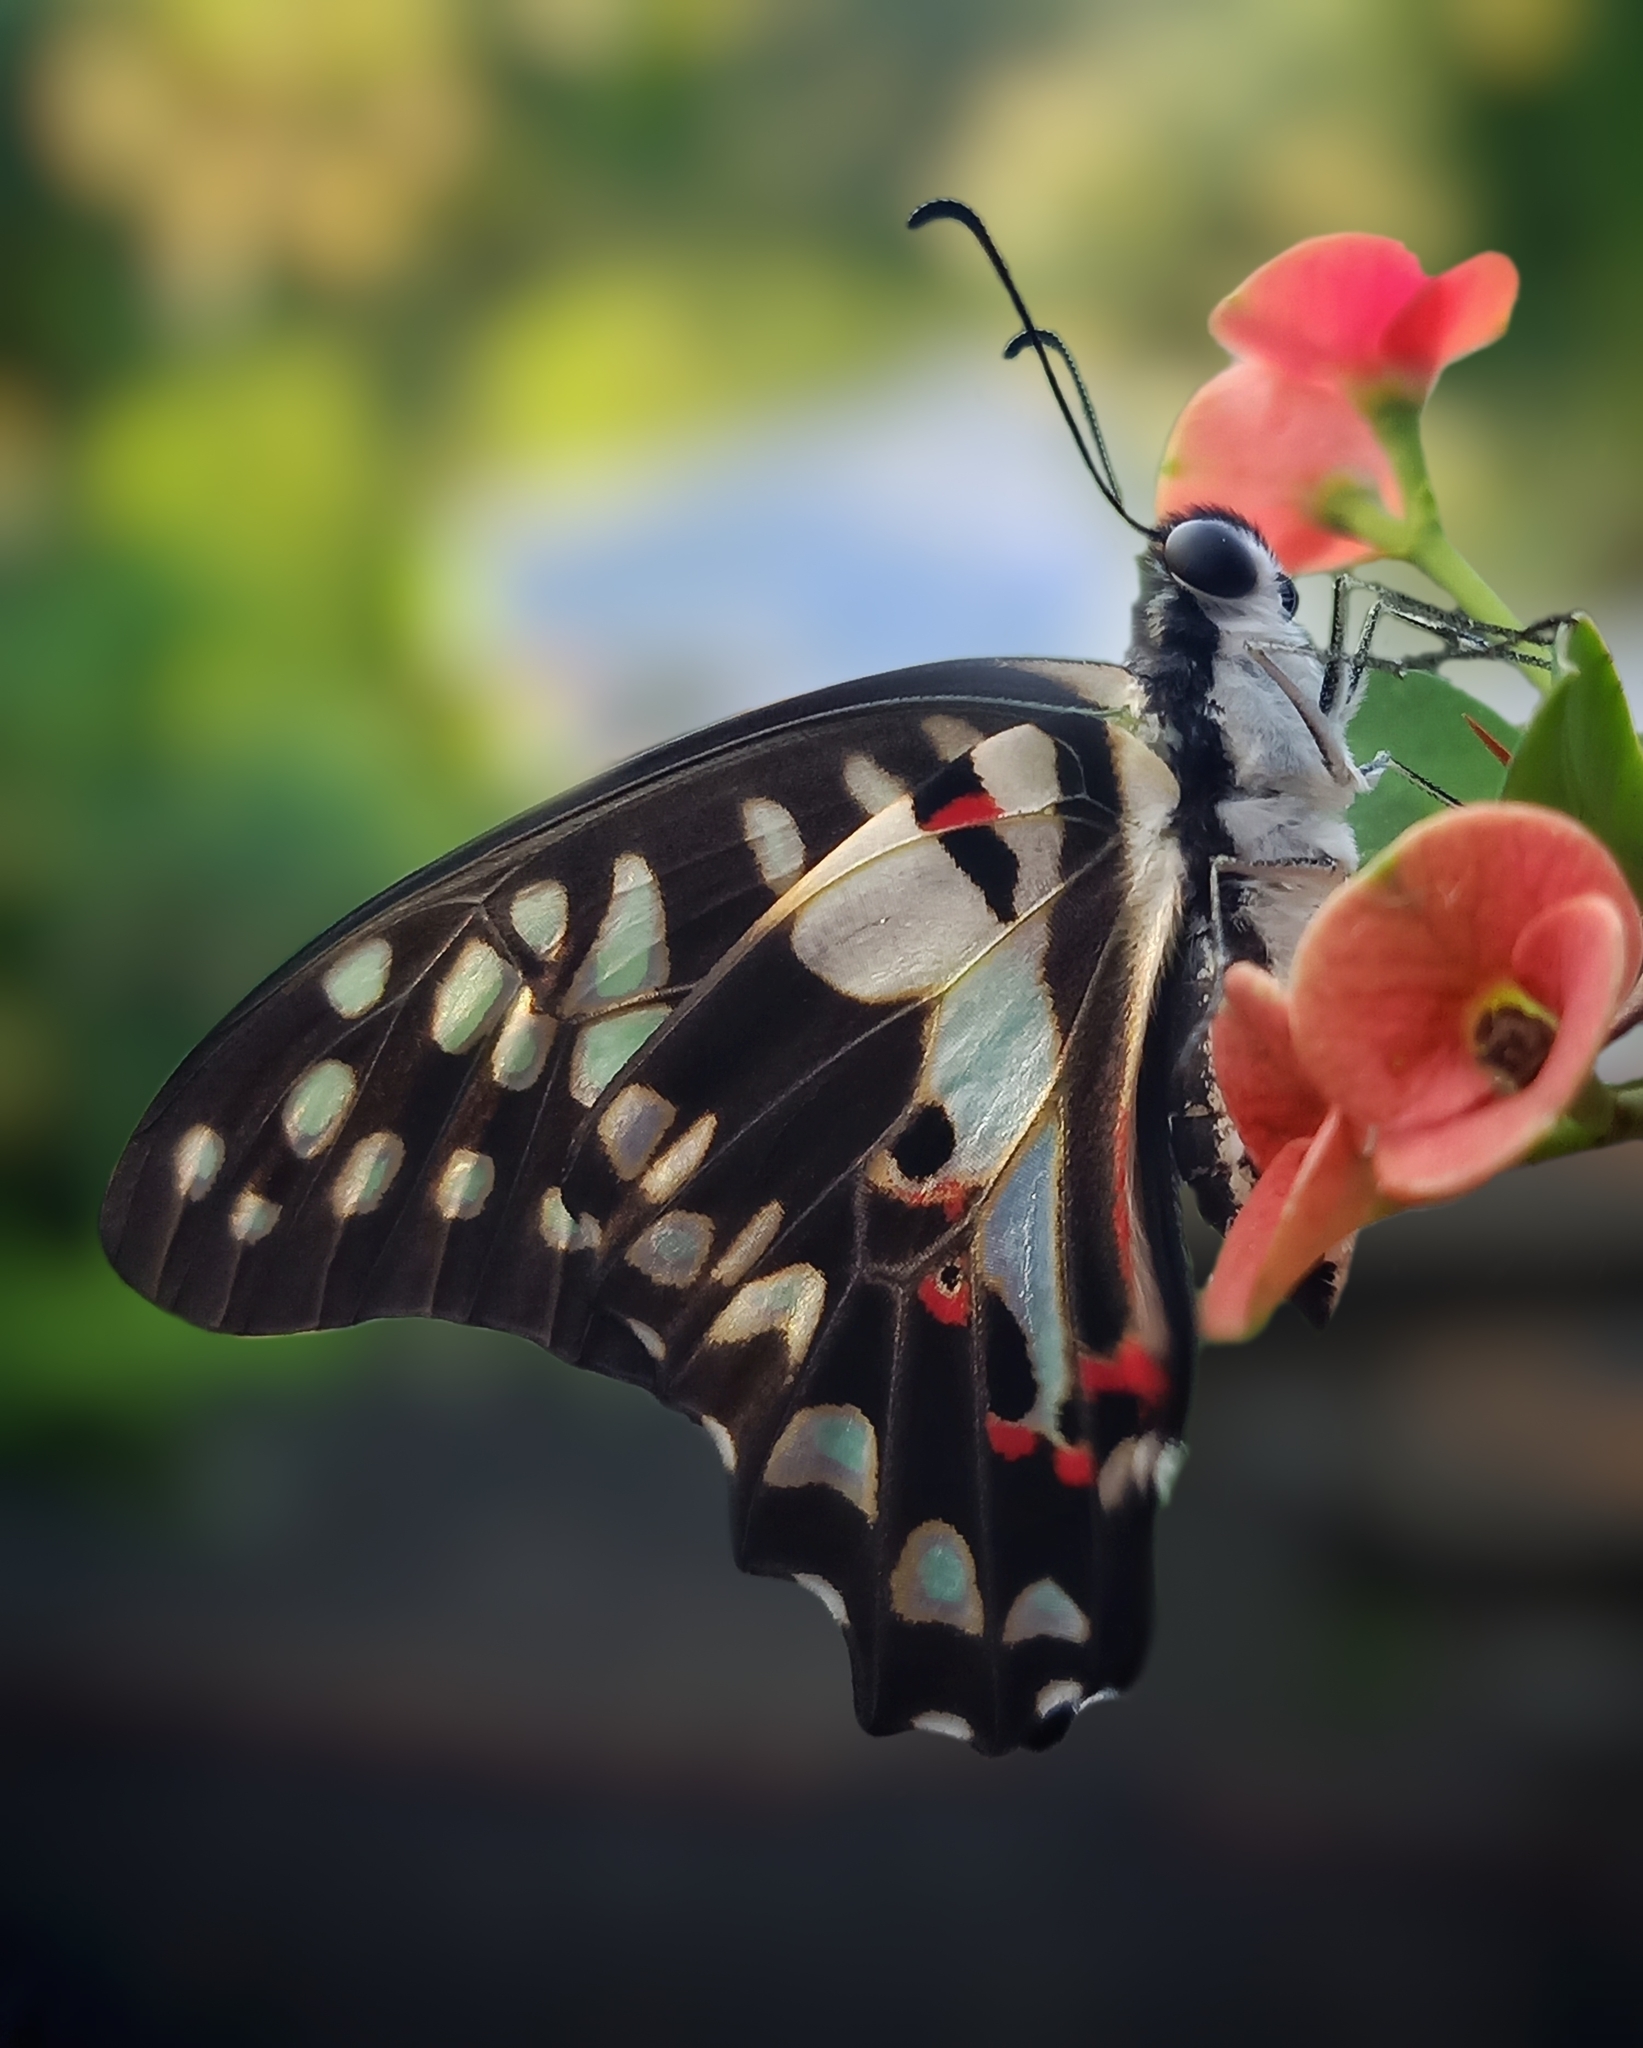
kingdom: Animalia
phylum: Arthropoda
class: Insecta
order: Lepidoptera
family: Papilionidae
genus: Graphium
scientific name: Graphium doson
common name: Common jay
